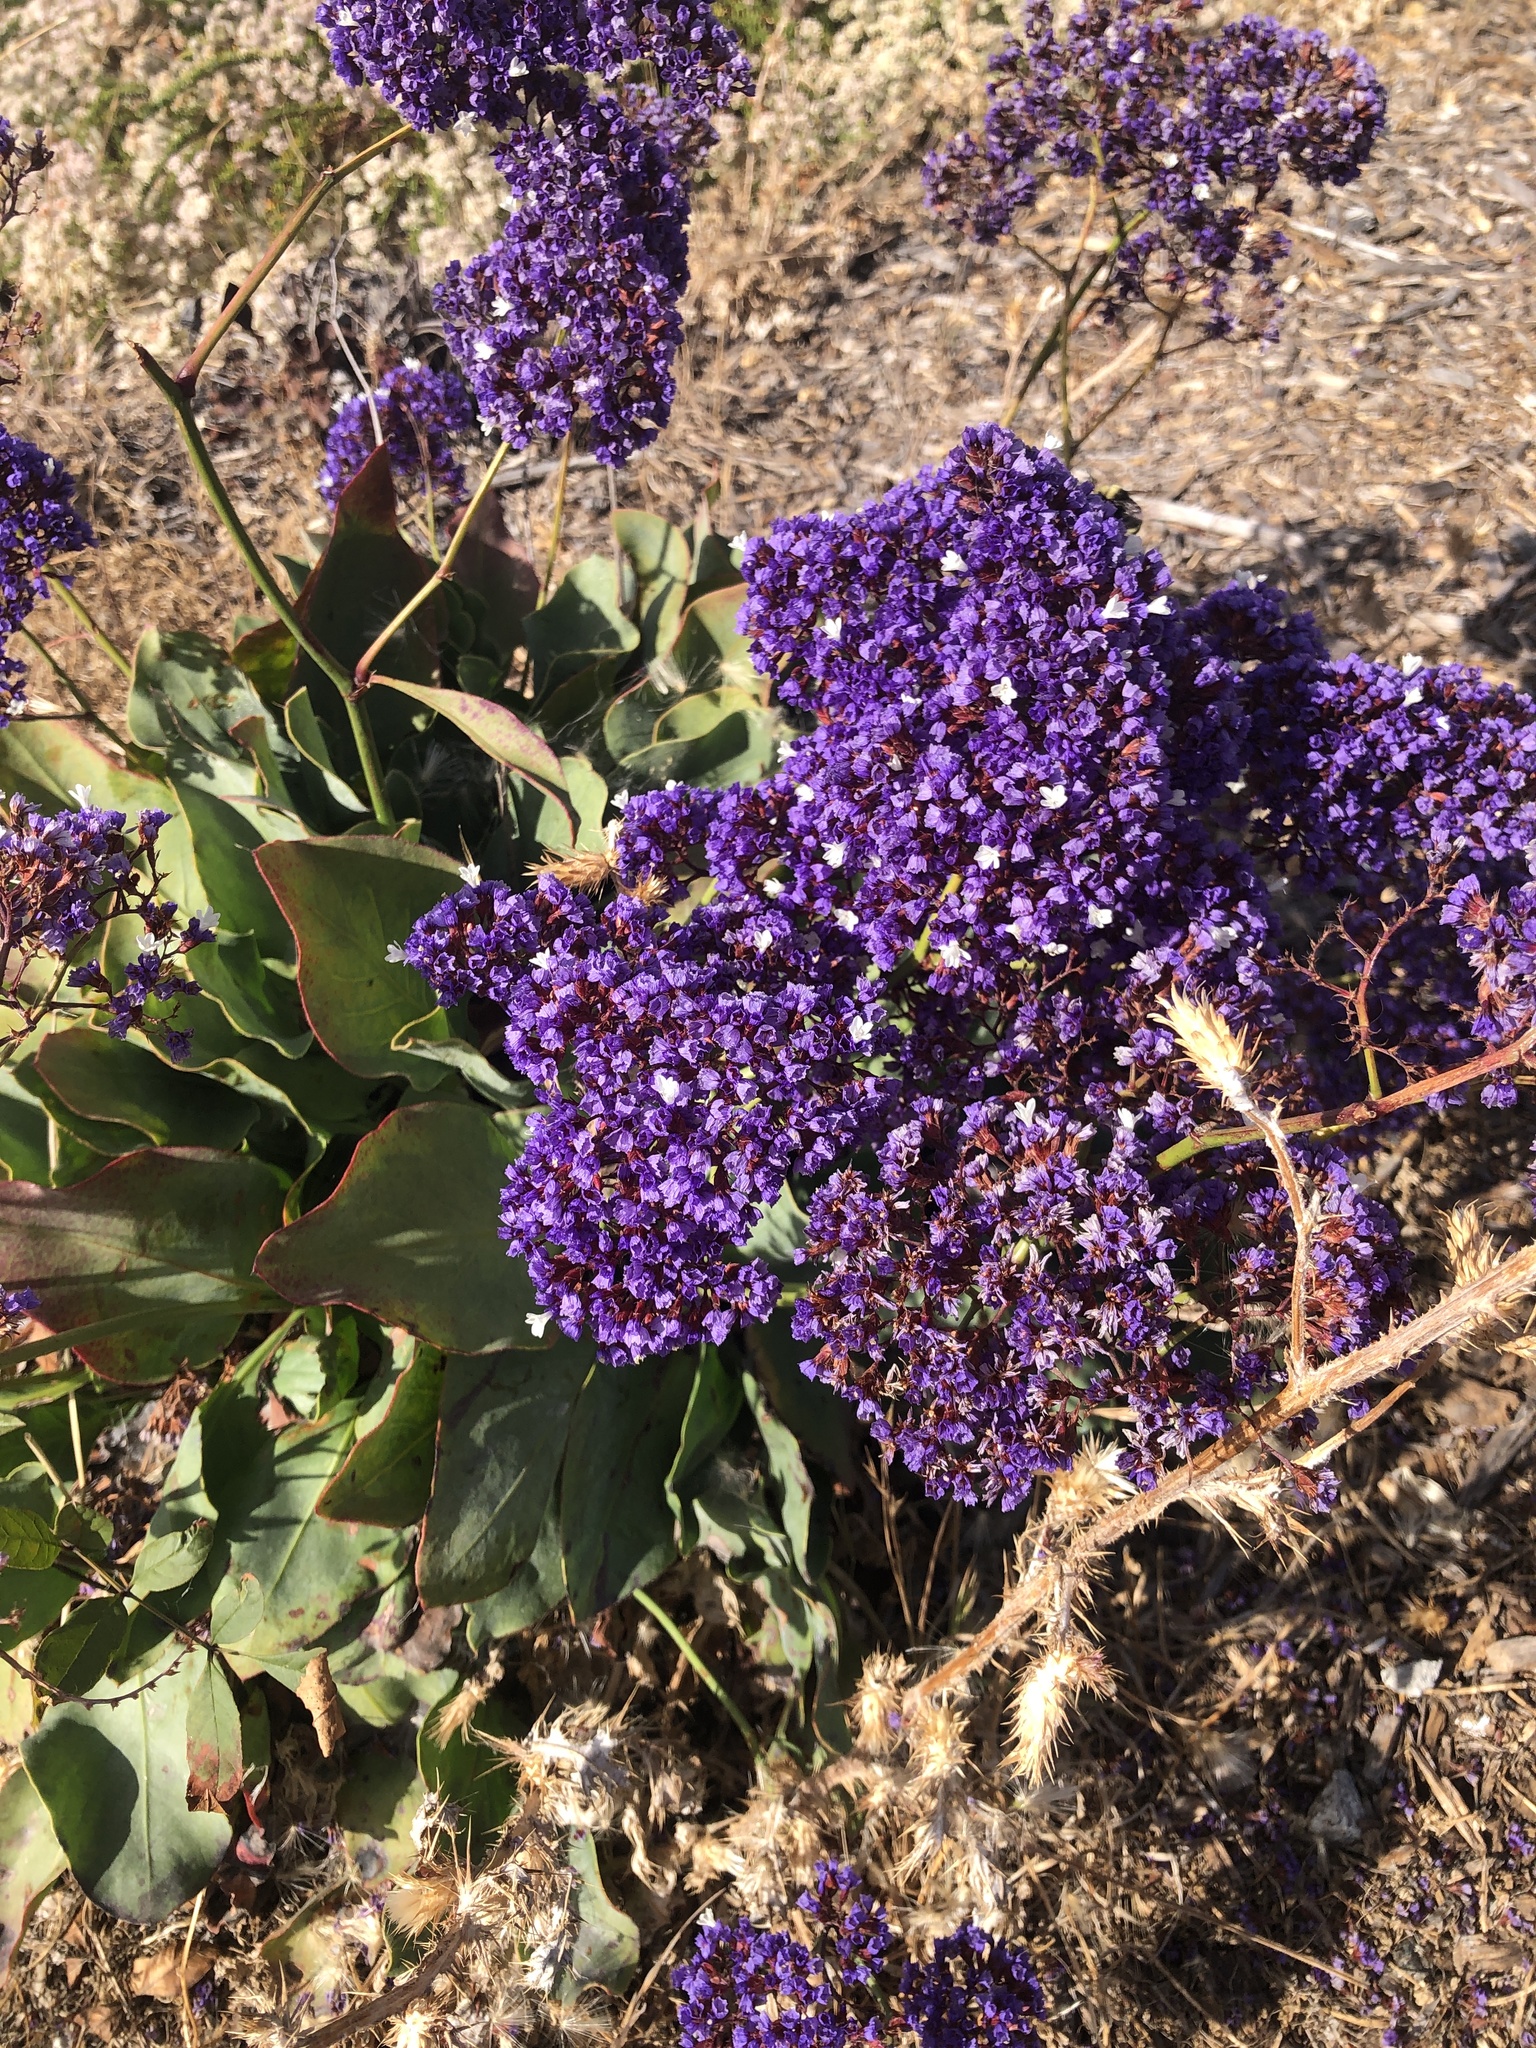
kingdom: Plantae
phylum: Tracheophyta
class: Magnoliopsida
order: Caryophyllales
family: Plumbaginaceae
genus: Limonium
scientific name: Limonium perezii
